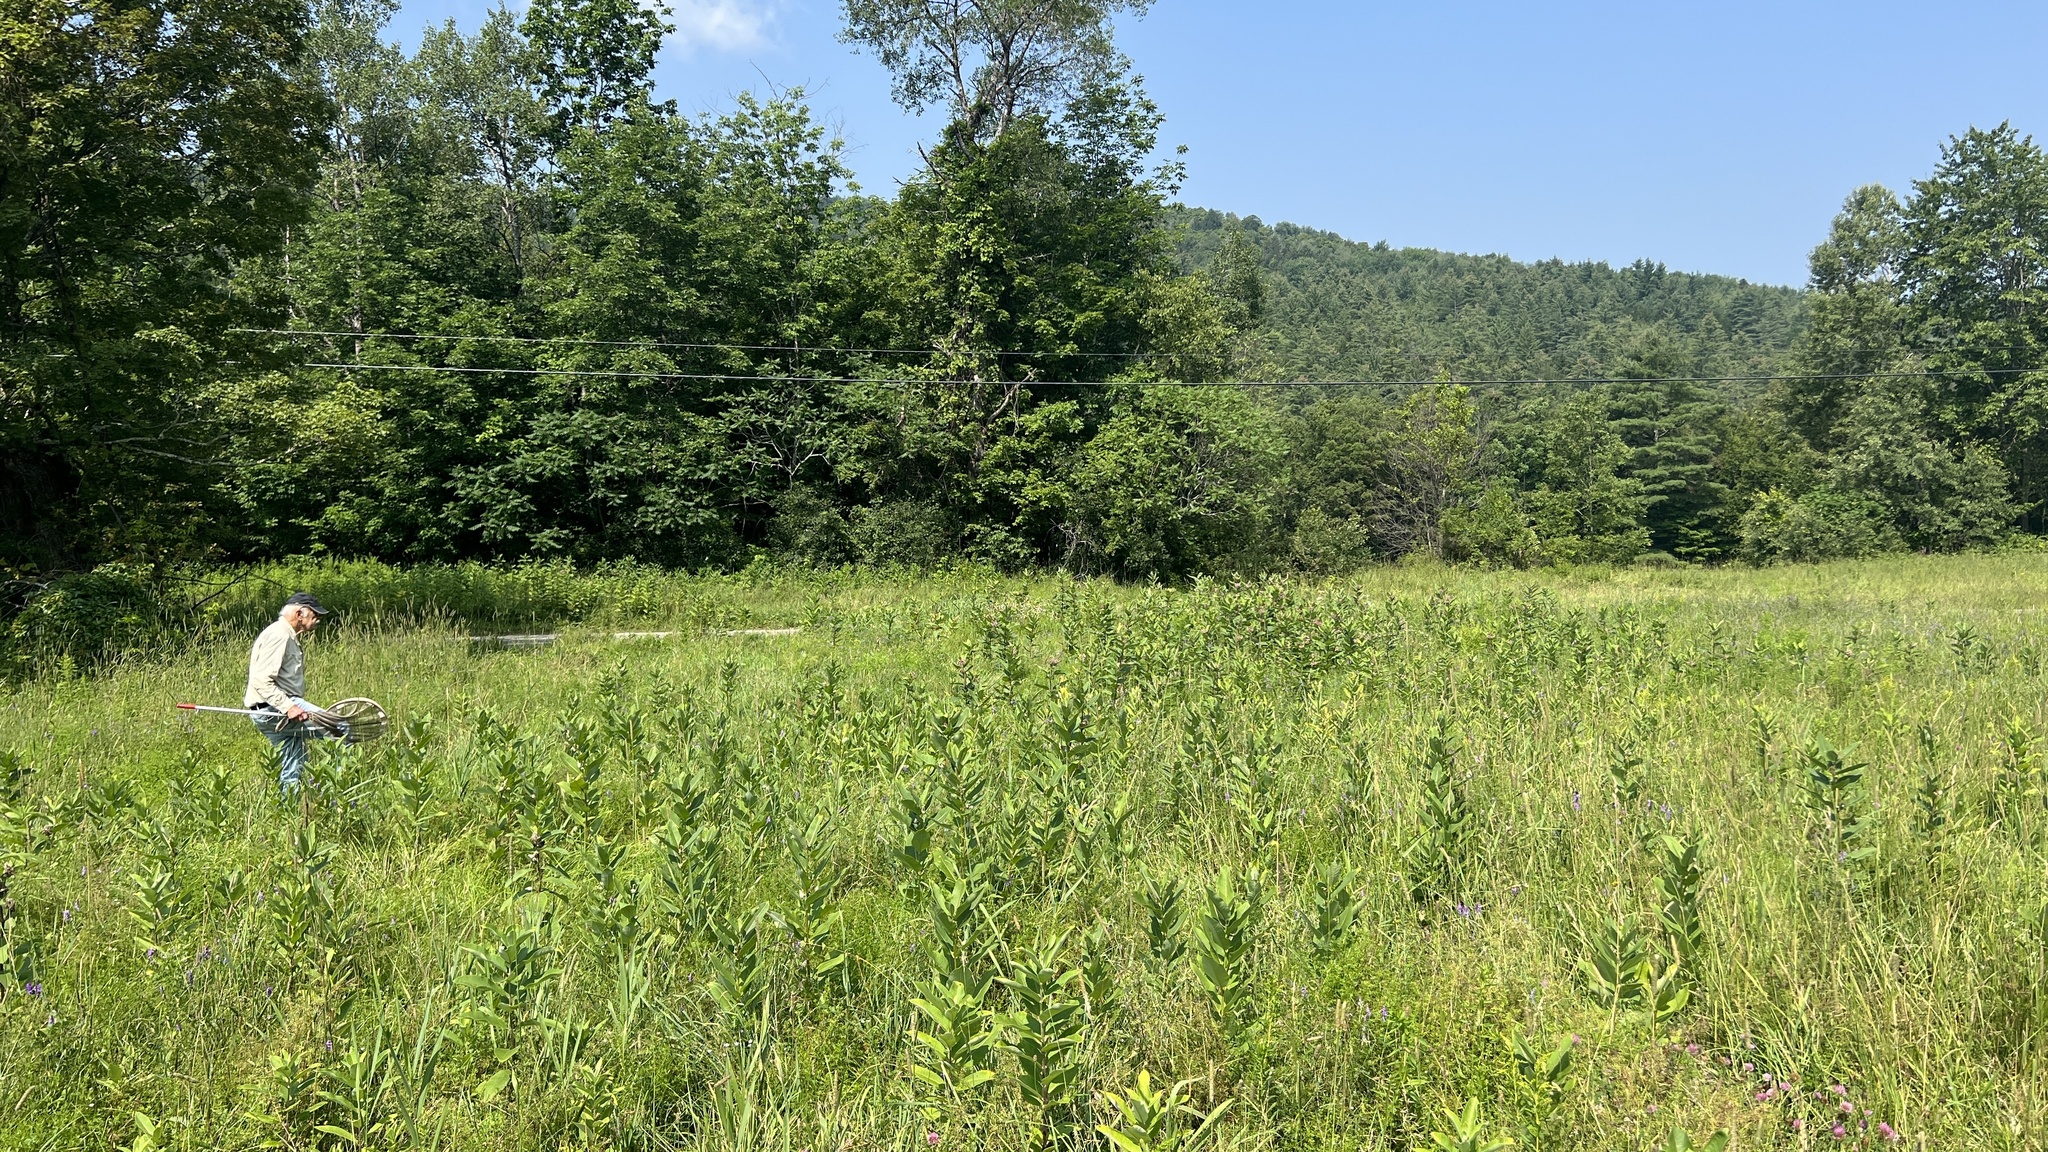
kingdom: Plantae
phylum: Tracheophyta
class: Magnoliopsida
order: Gentianales
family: Apocynaceae
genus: Asclepias
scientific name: Asclepias syriaca
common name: Common milkweed
